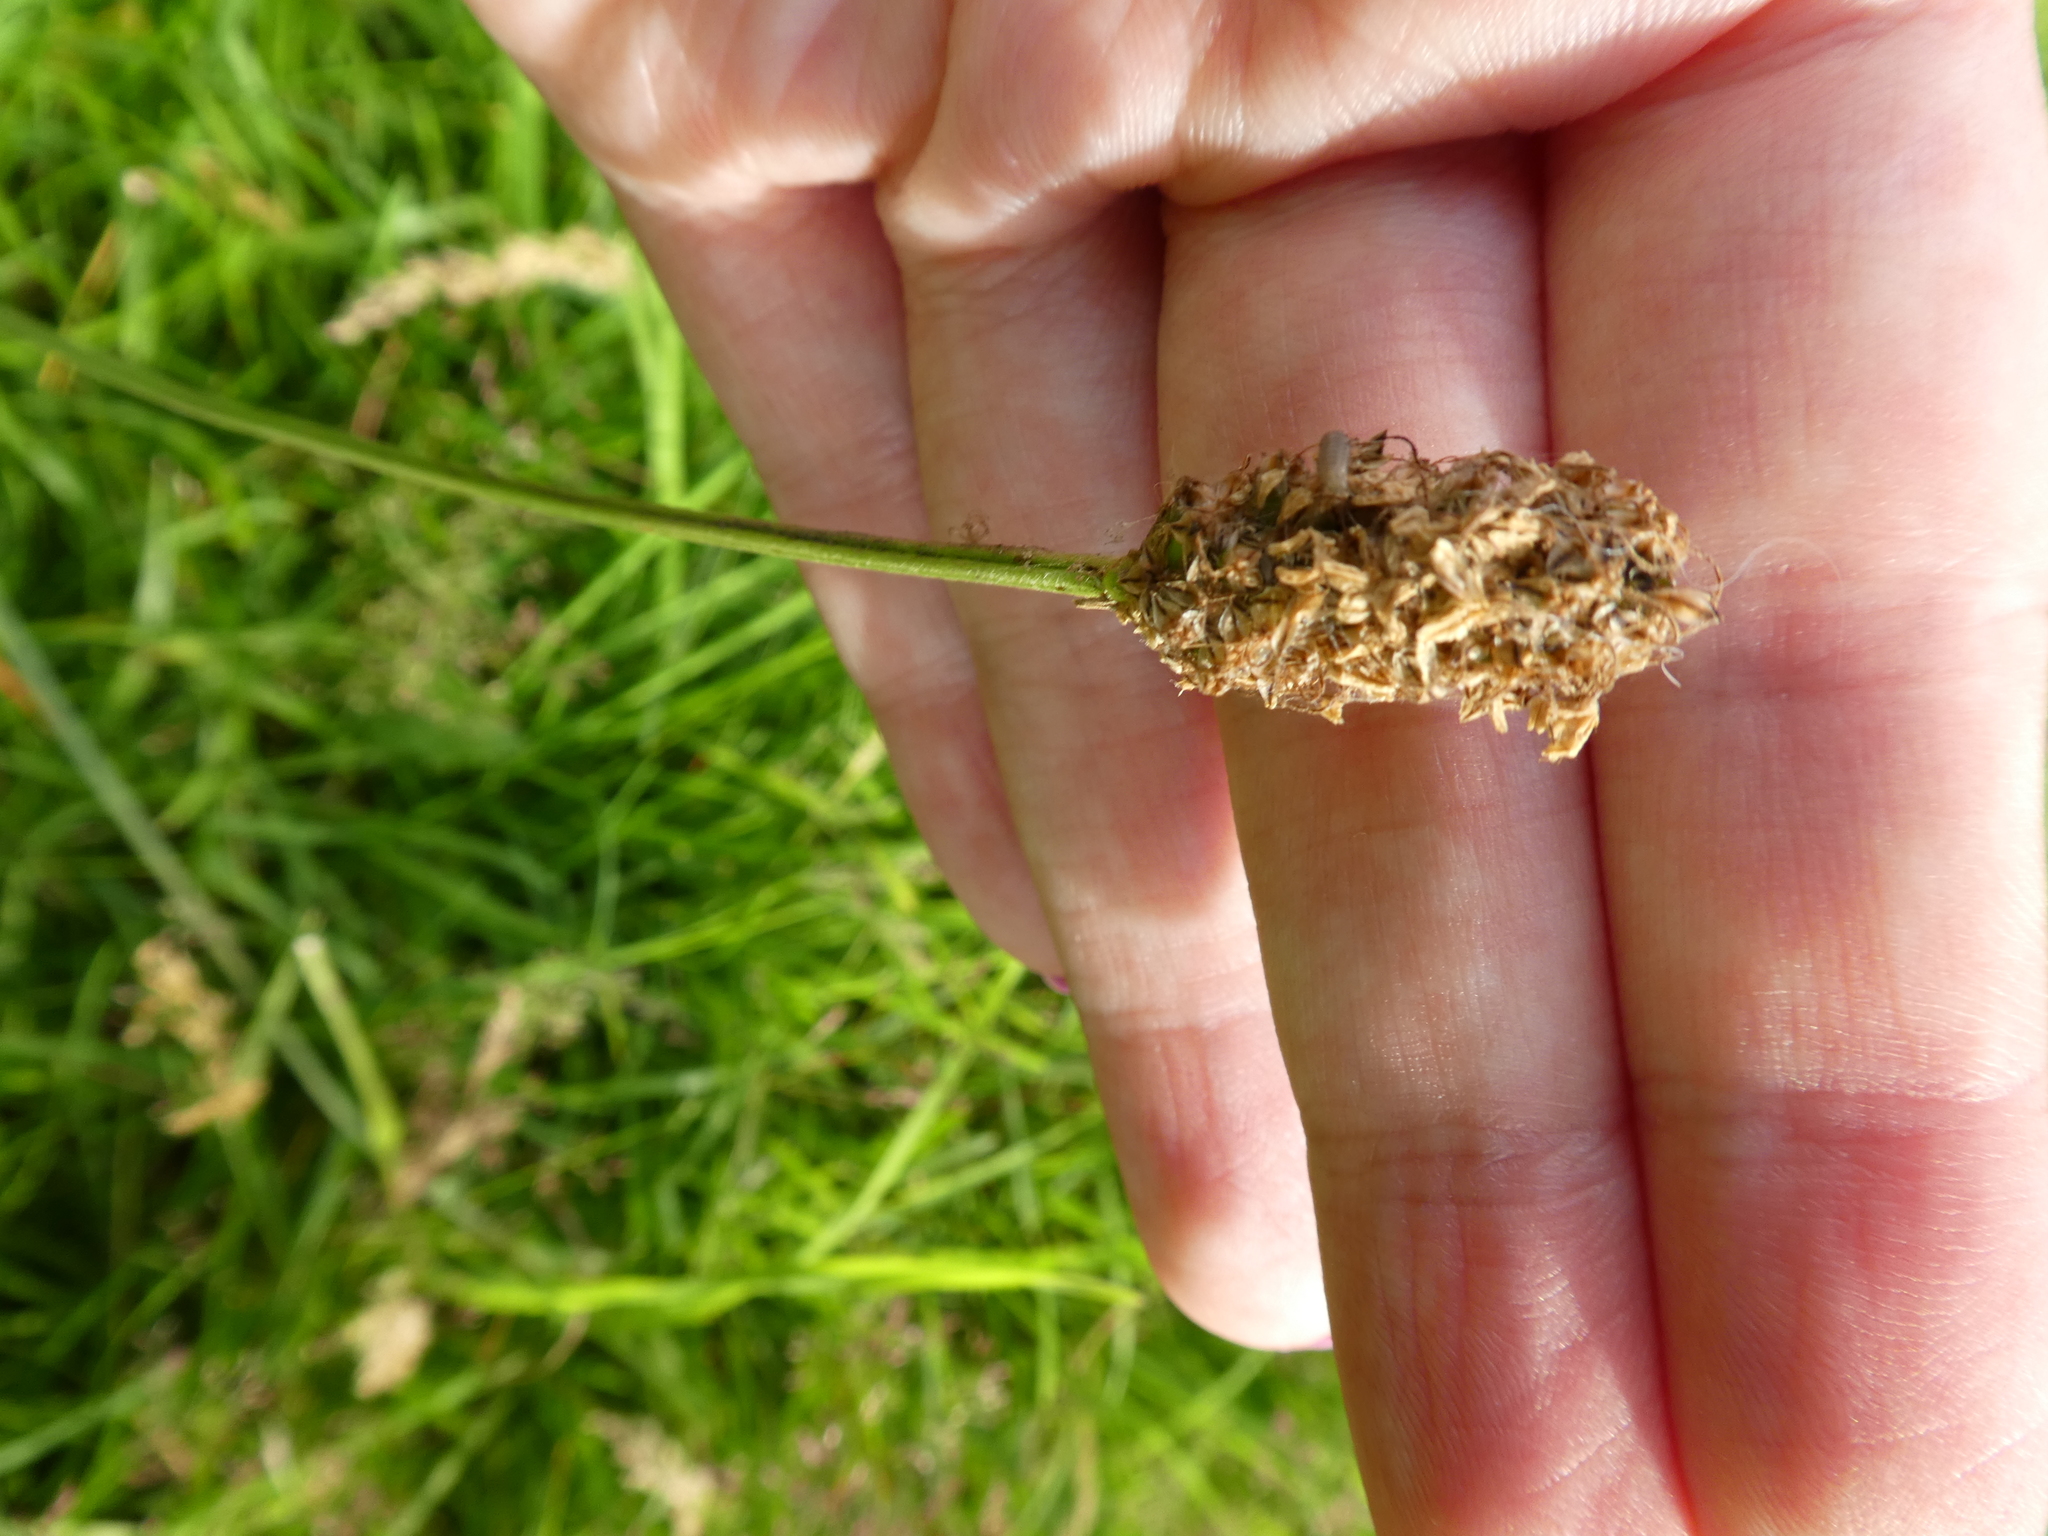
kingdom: Plantae
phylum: Tracheophyta
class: Magnoliopsida
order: Lamiales
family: Plantaginaceae
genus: Plantago
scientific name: Plantago lanceolata
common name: Ribwort plantain
